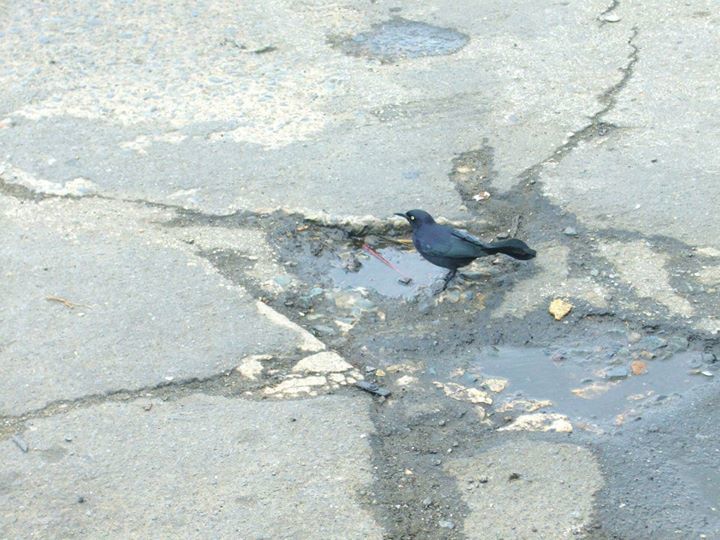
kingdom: Animalia
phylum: Chordata
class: Aves
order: Passeriformes
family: Icteridae
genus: Quiscalus
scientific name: Quiscalus niger
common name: Greater antillean grackle
